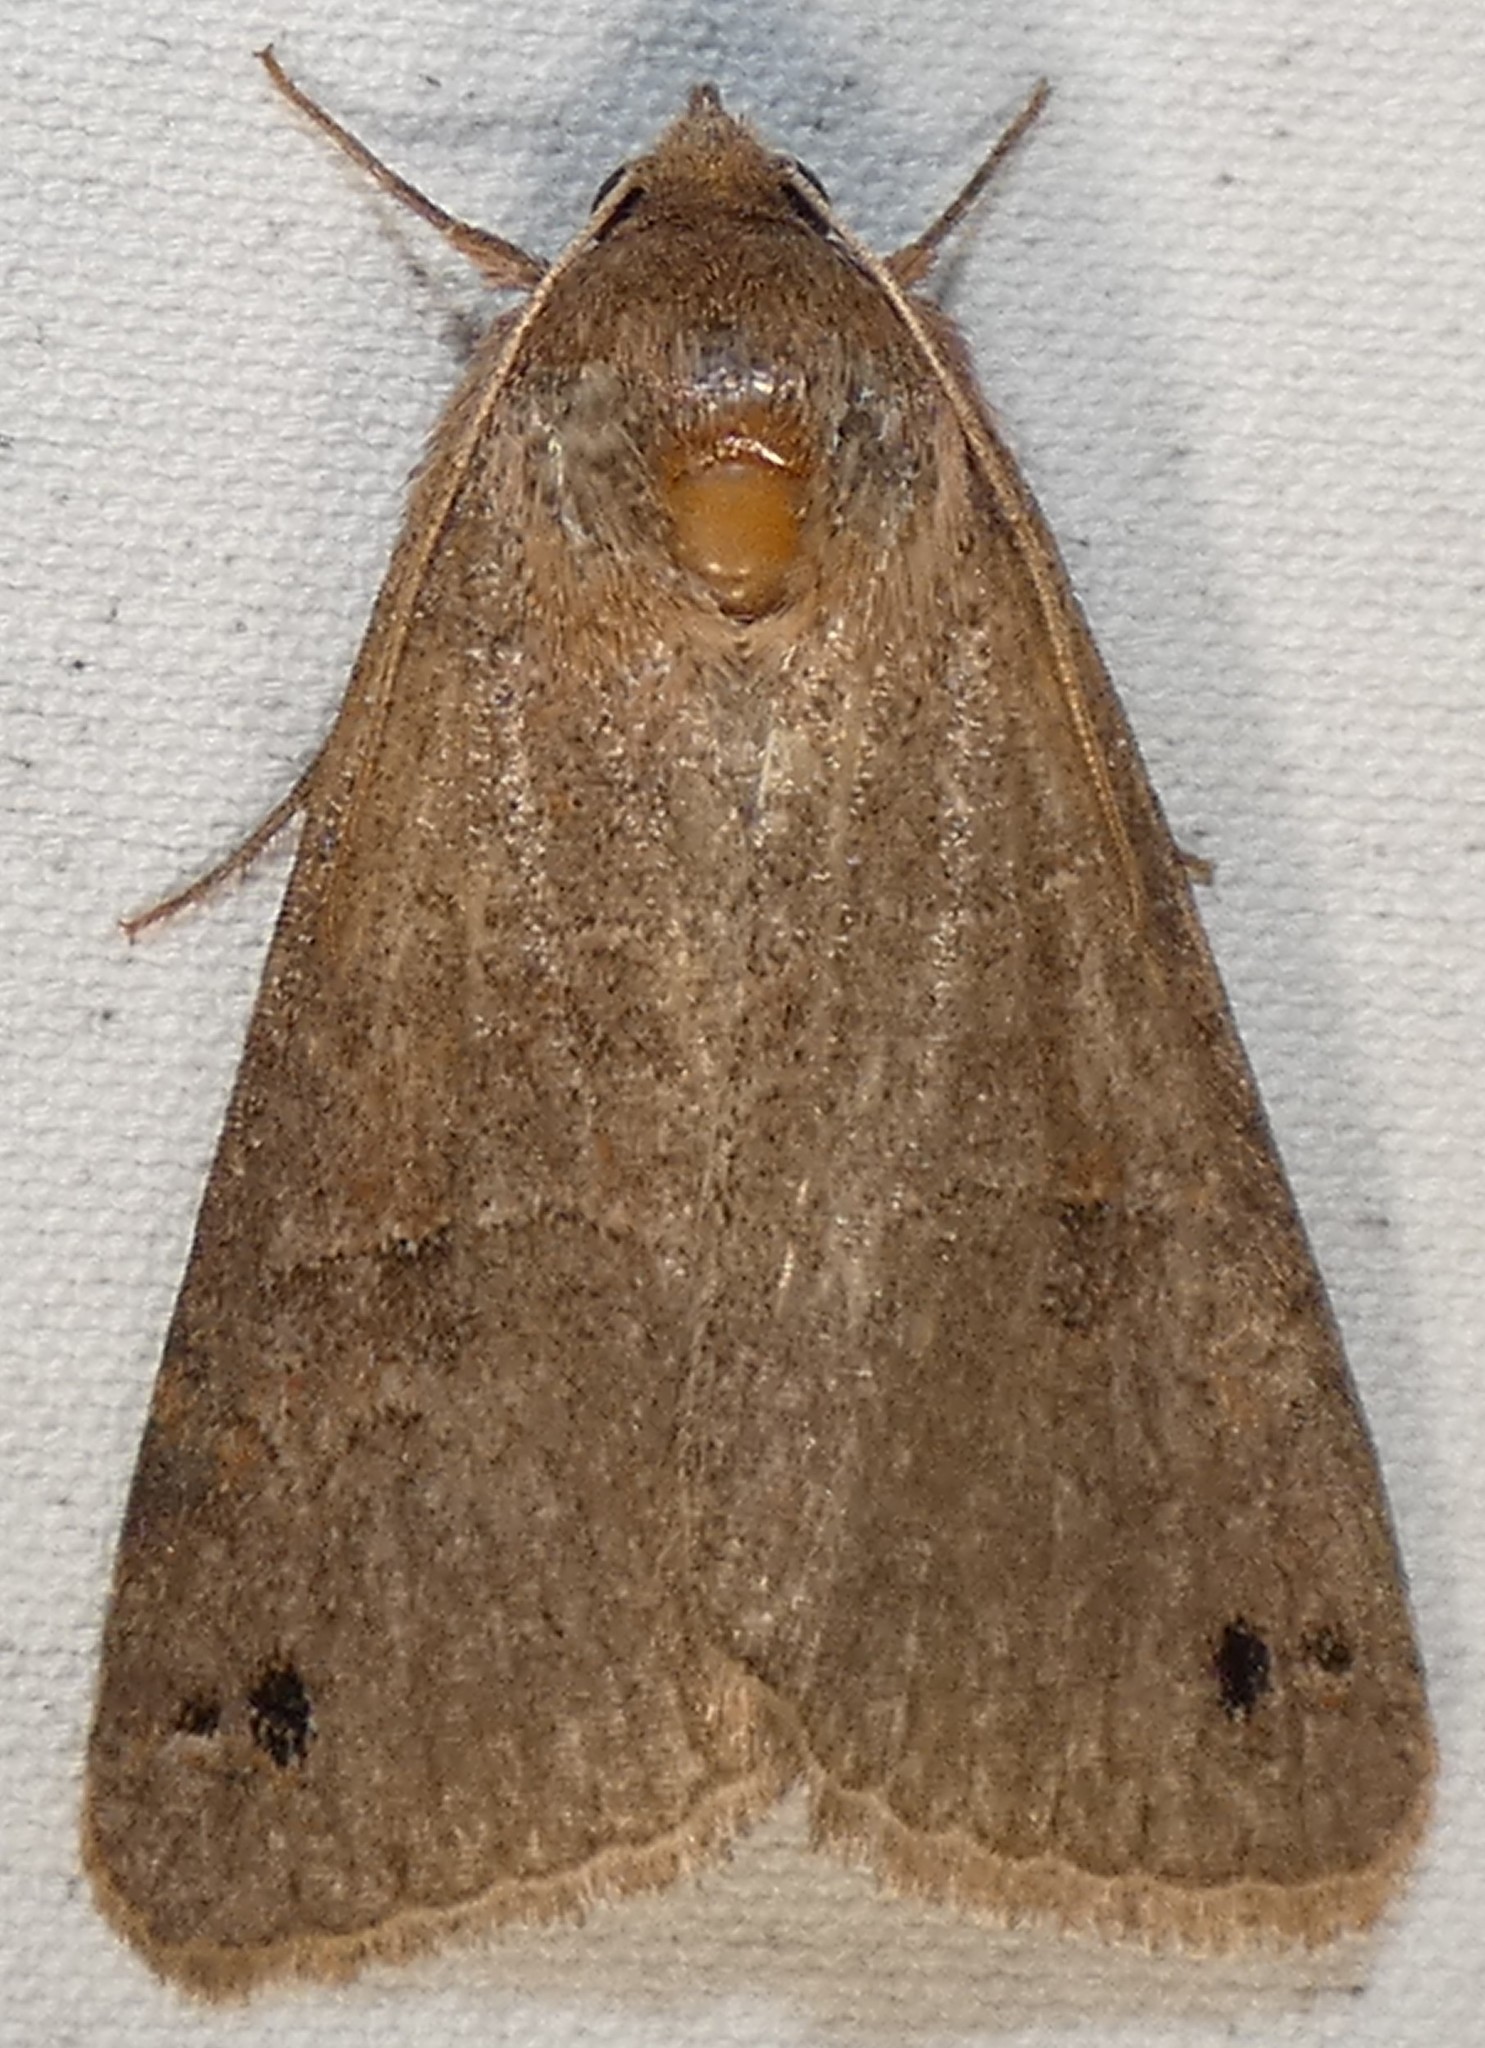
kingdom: Animalia
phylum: Arthropoda
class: Insecta
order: Lepidoptera
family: Erebidae
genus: Cissusa
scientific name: Cissusa spadix
